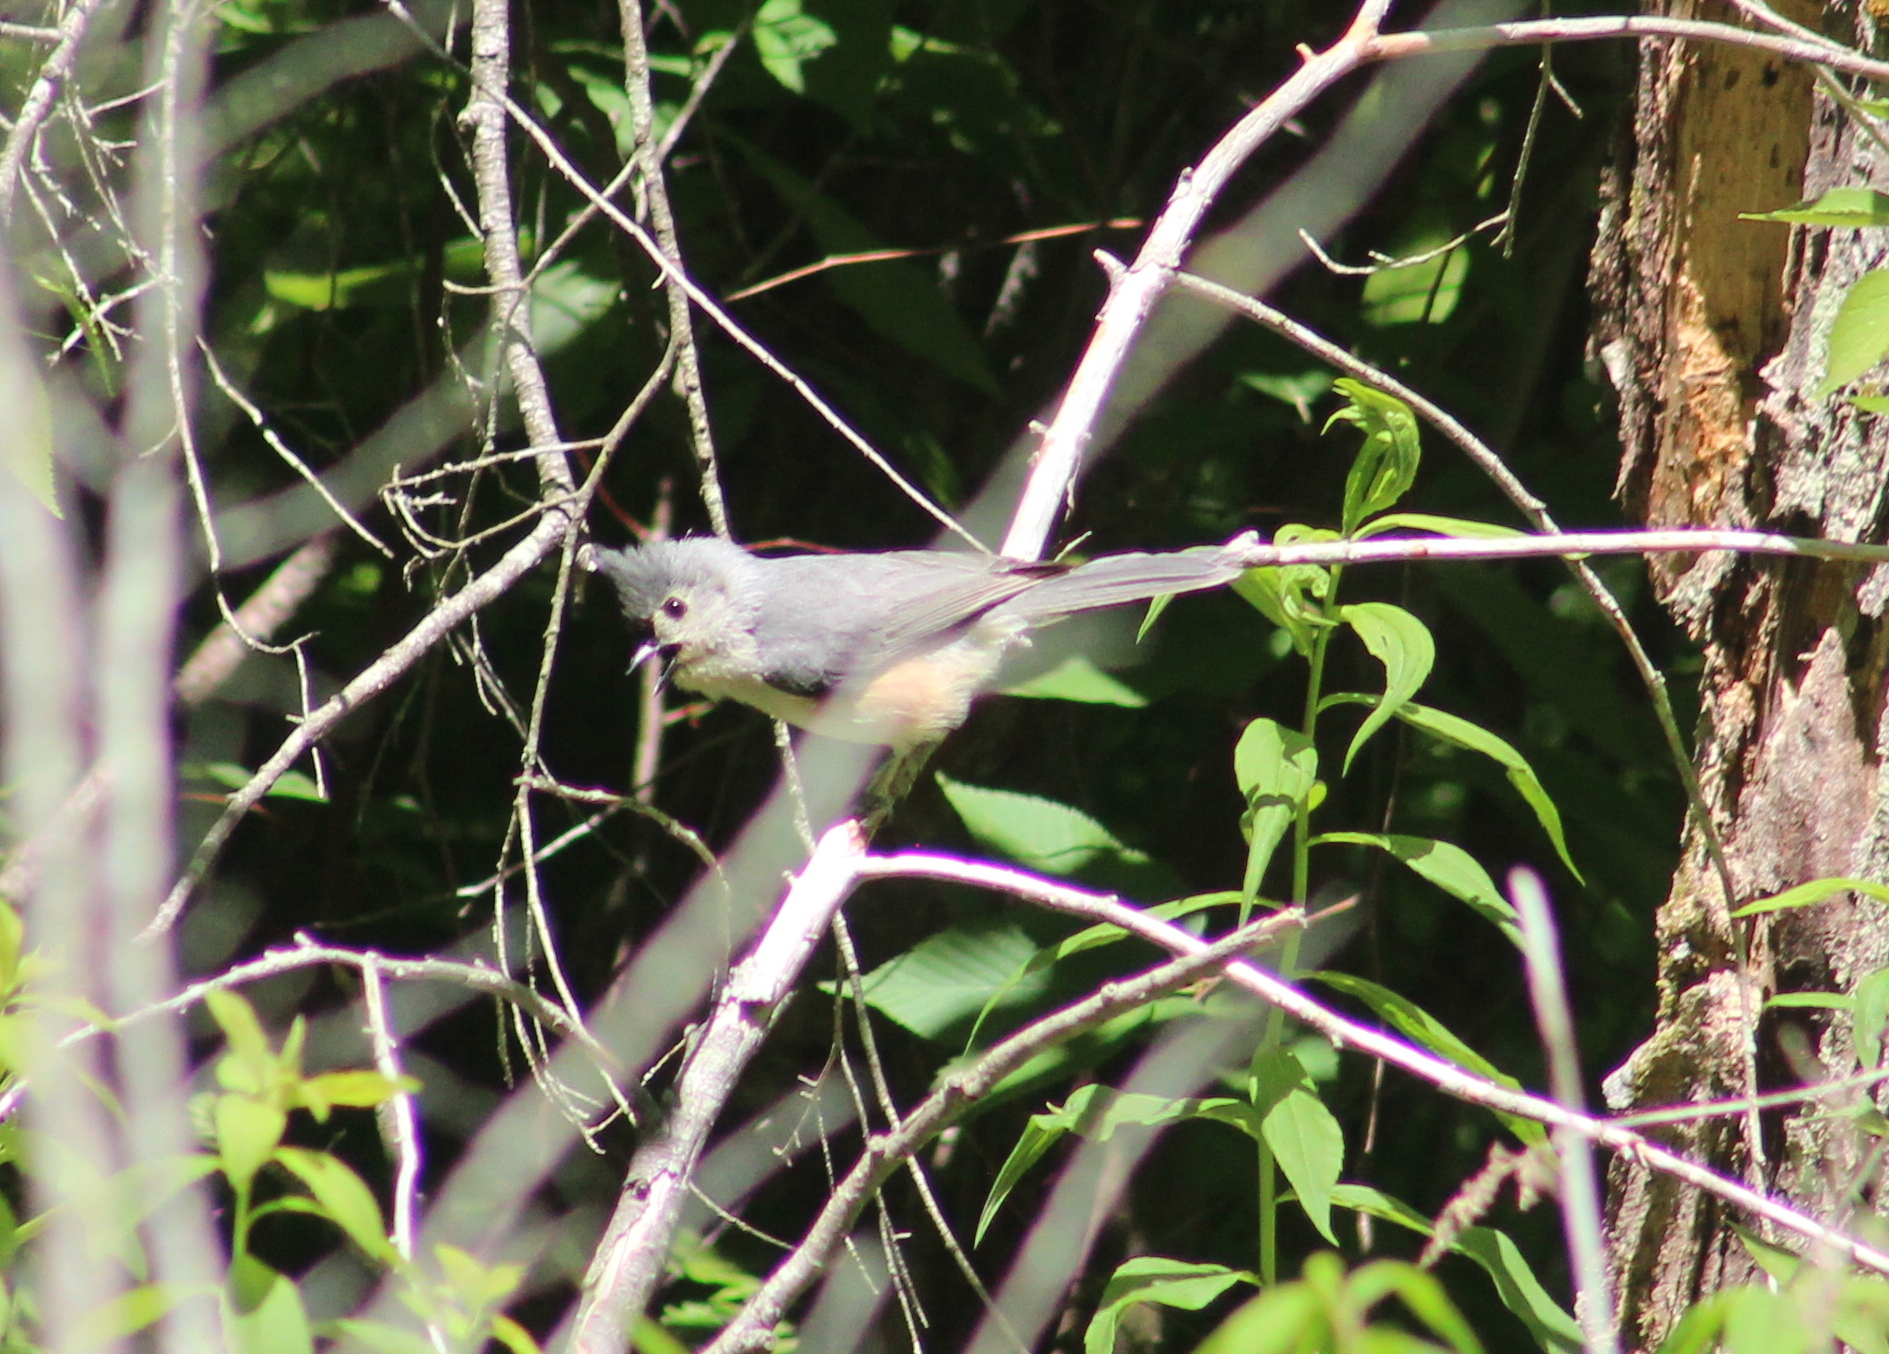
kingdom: Animalia
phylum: Chordata
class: Aves
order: Passeriformes
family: Paridae
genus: Baeolophus
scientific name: Baeolophus bicolor
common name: Tufted titmouse
